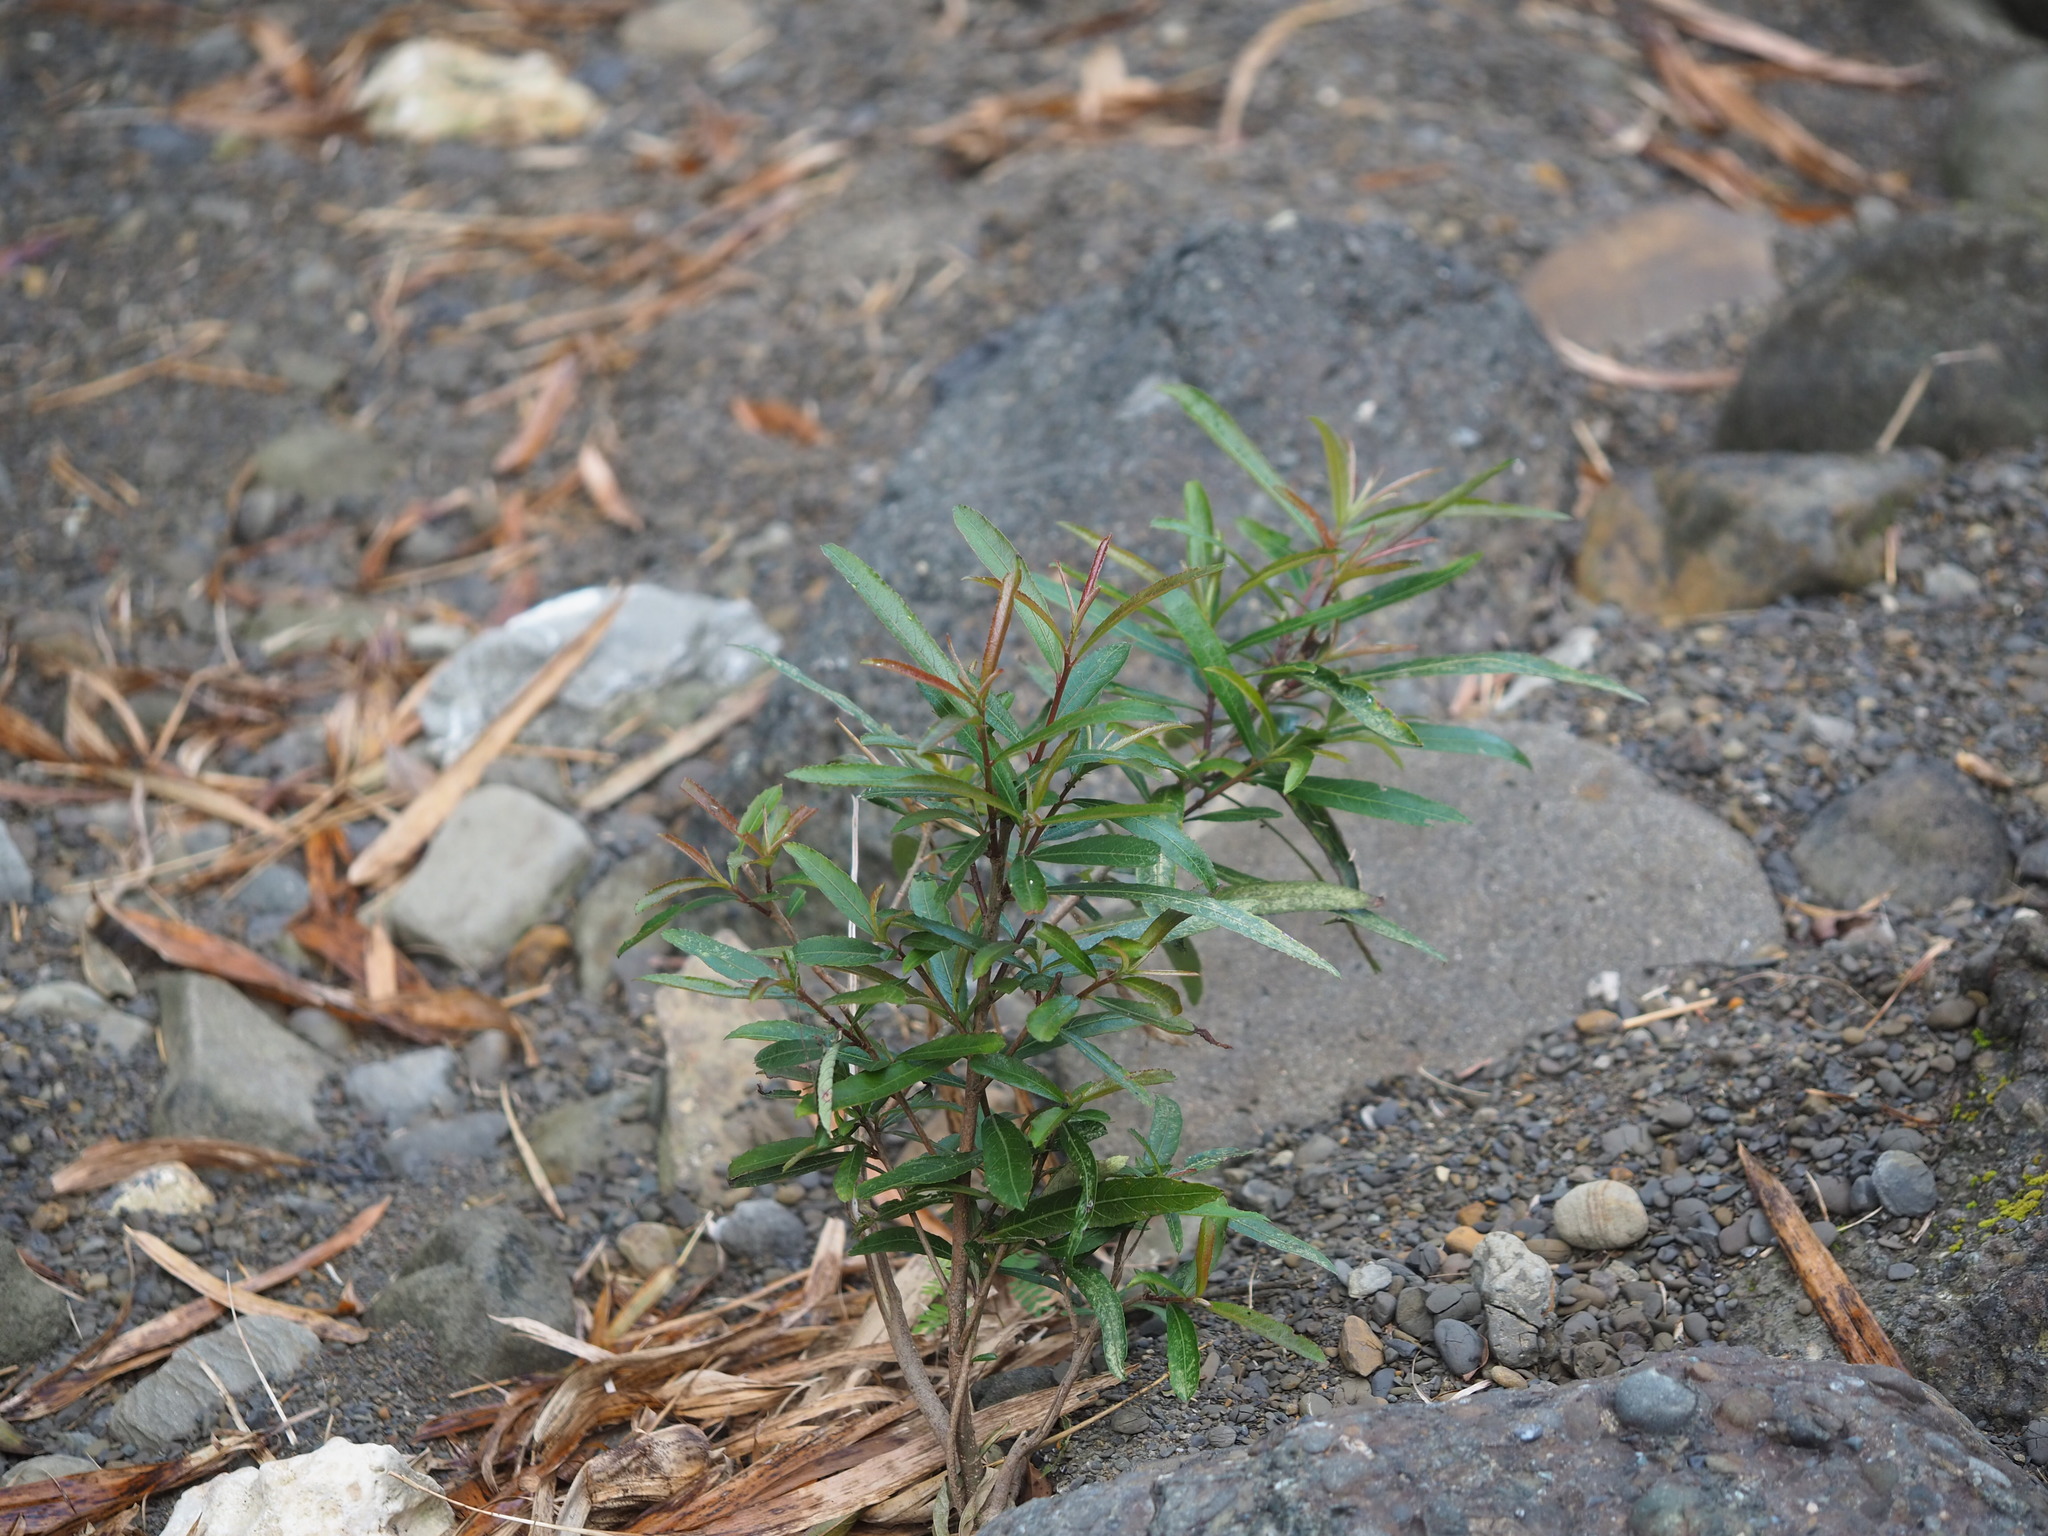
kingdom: Plantae
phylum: Tracheophyta
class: Magnoliopsida
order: Malpighiales
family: Euphorbiaceae
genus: Homonoia
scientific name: Homonoia riparia
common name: Willow-leaved water croton
